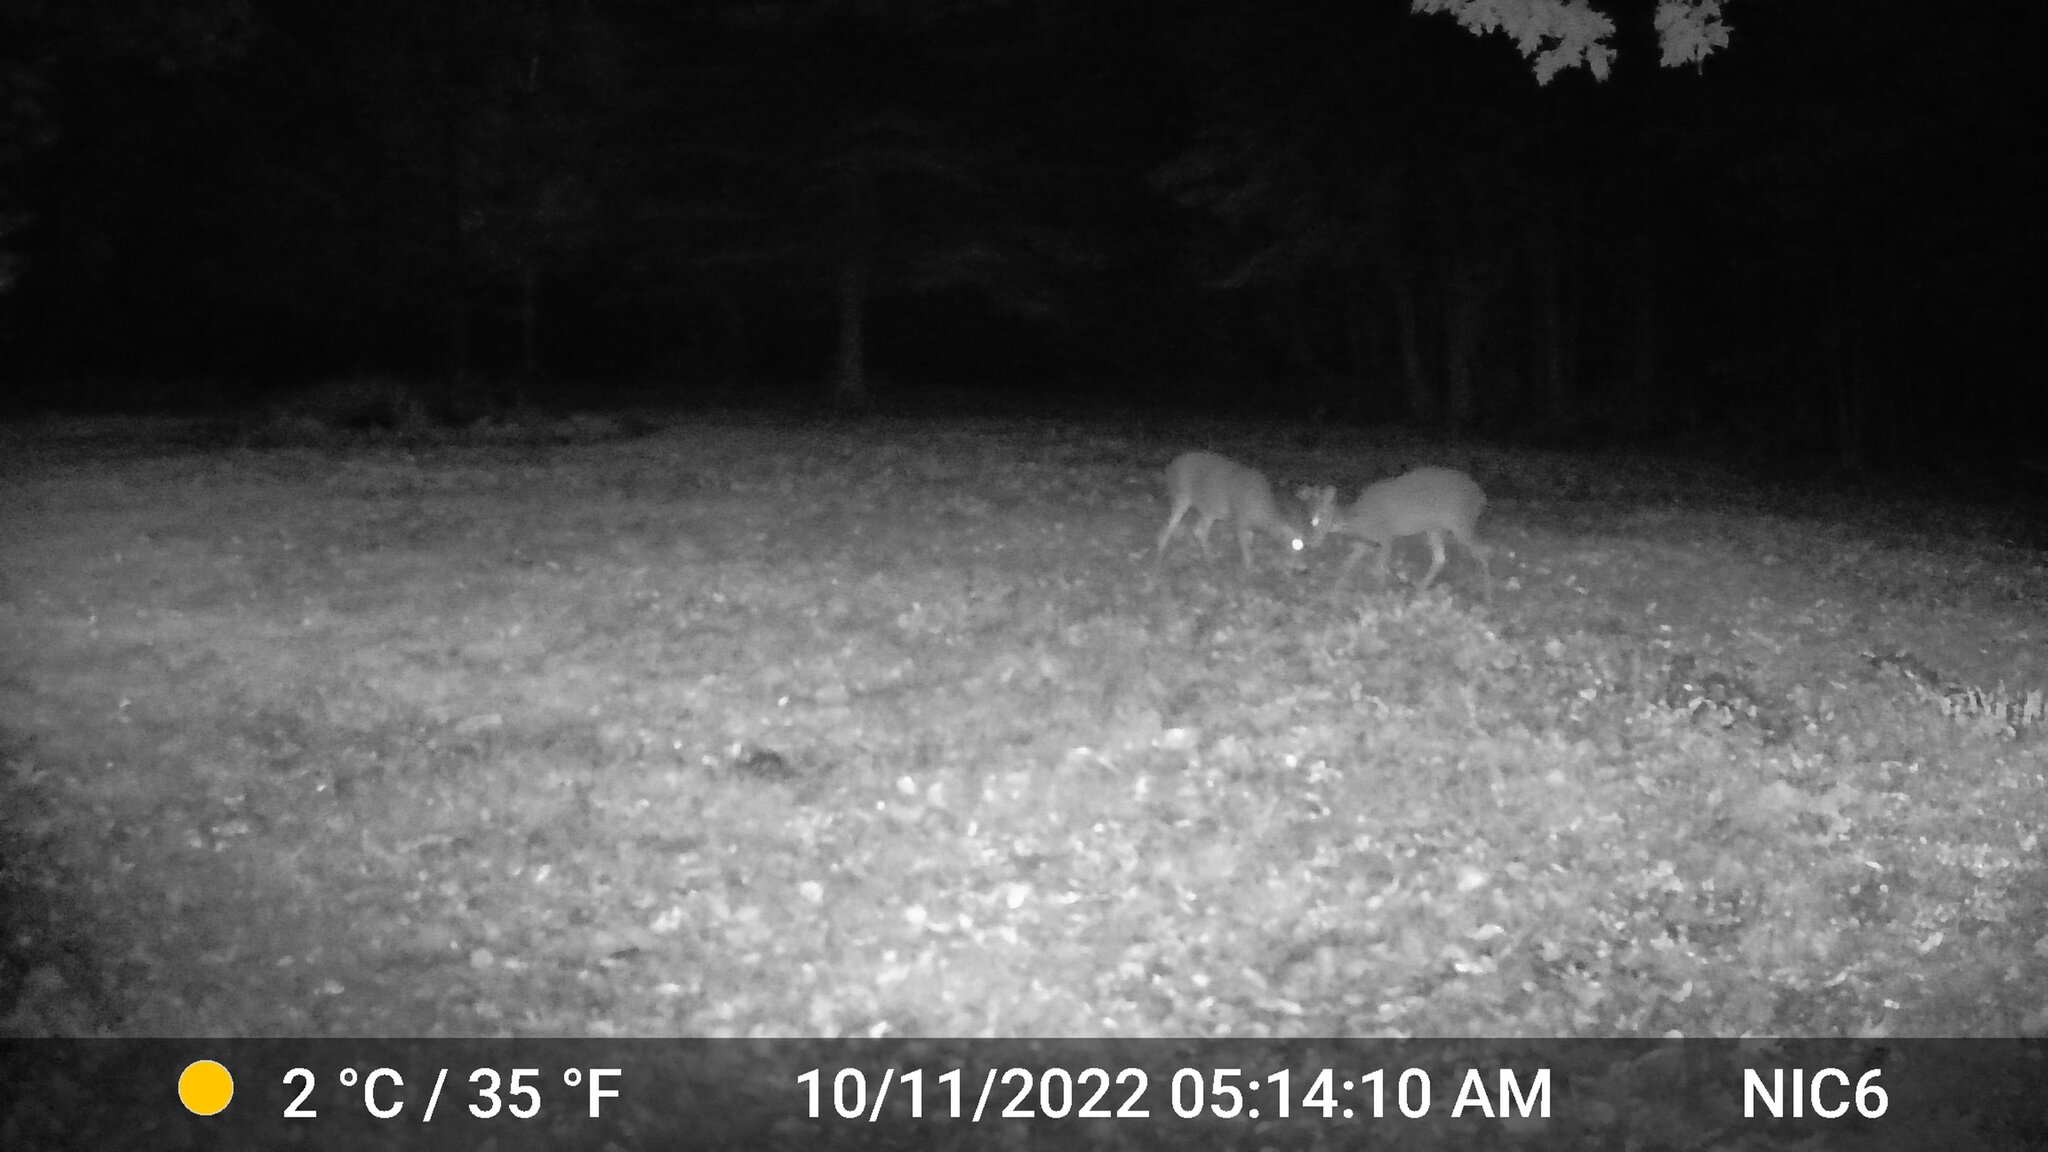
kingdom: Animalia
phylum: Chordata
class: Mammalia
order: Artiodactyla
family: Cervidae
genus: Odocoileus
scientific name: Odocoileus virginianus
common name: White-tailed deer
